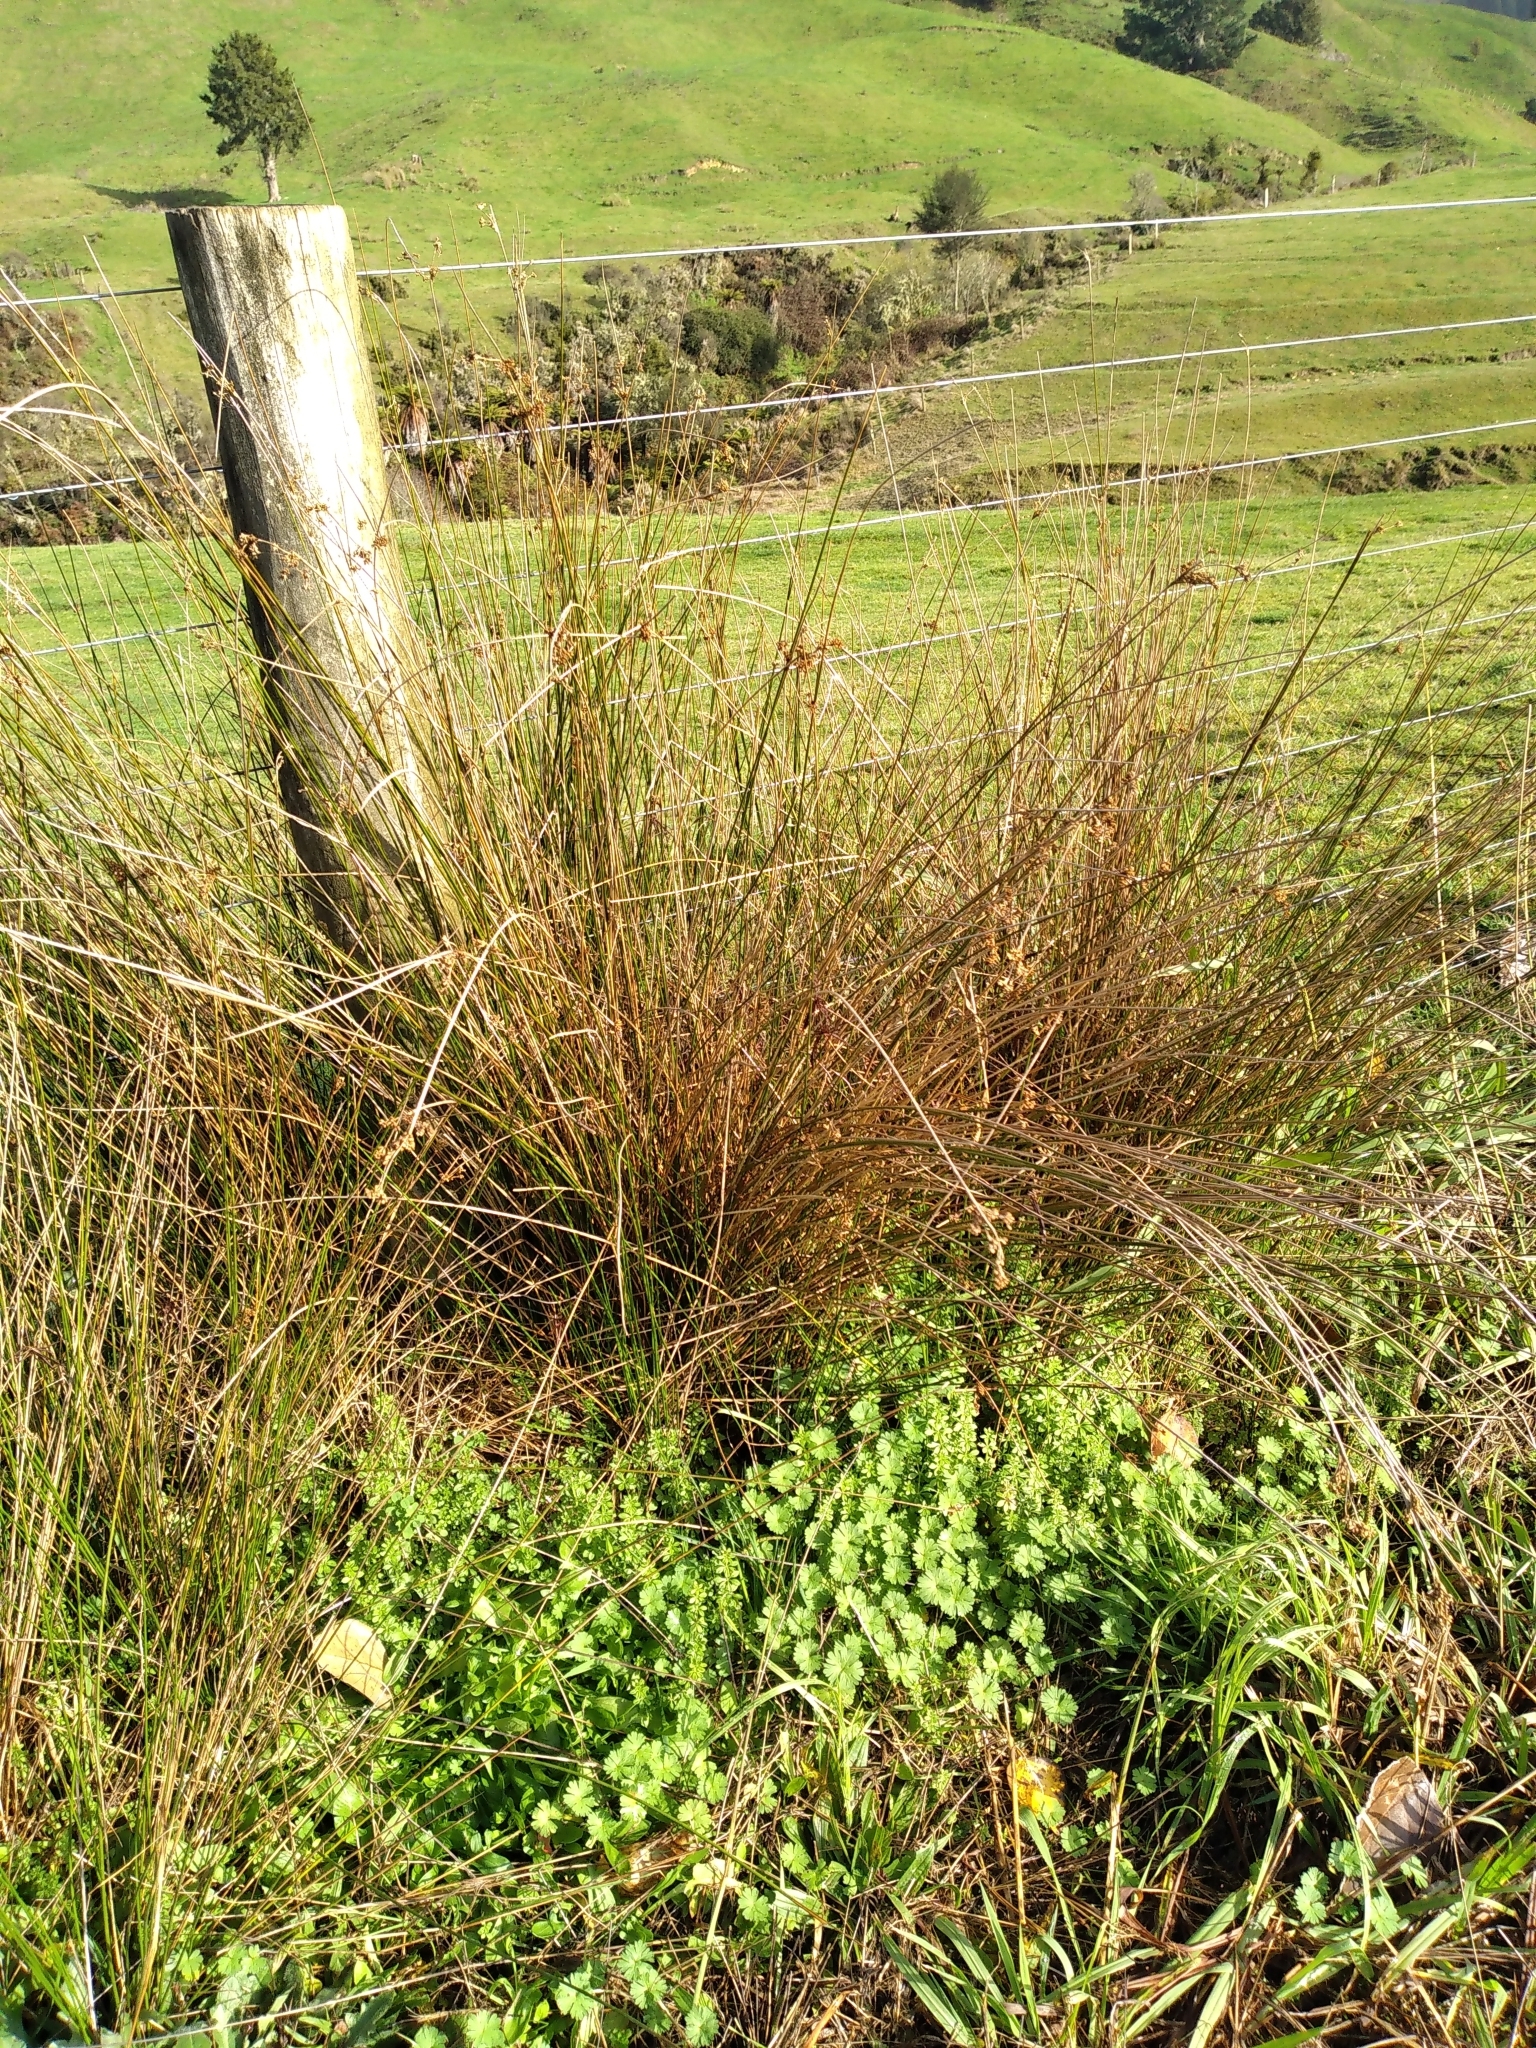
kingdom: Plantae
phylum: Tracheophyta
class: Liliopsida
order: Poales
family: Juncaceae
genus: Juncus
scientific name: Juncus edgariae
